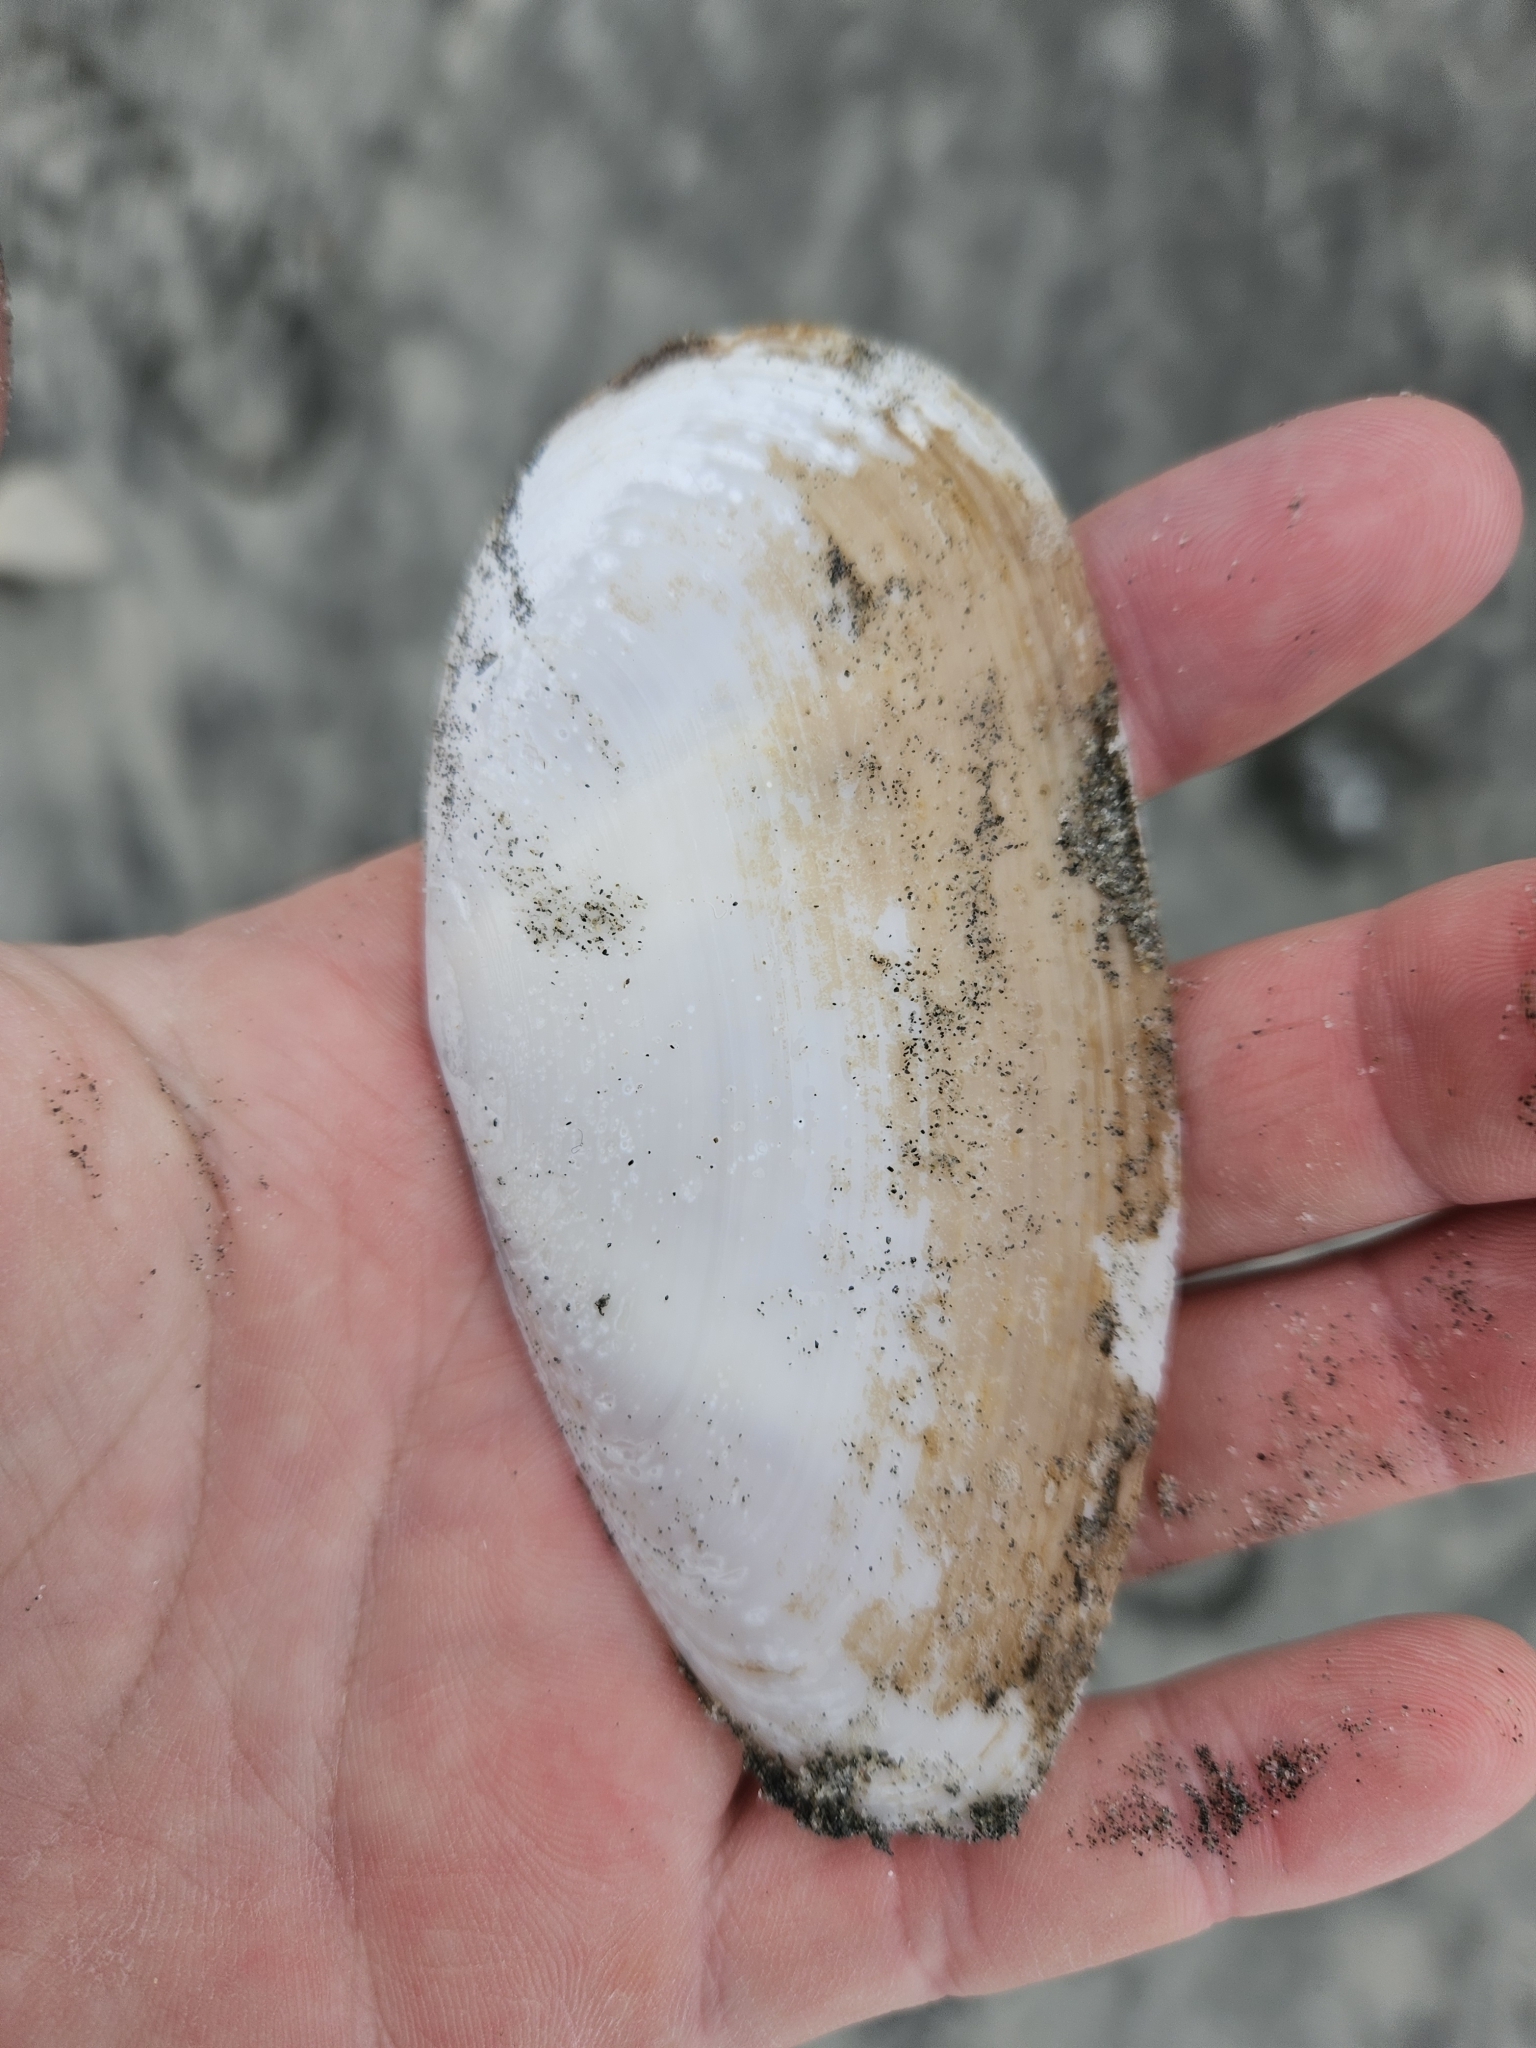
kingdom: Animalia
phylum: Mollusca
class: Bivalvia
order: Venerida
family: Mactridae
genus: Resania
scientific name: Resania lanceolata
